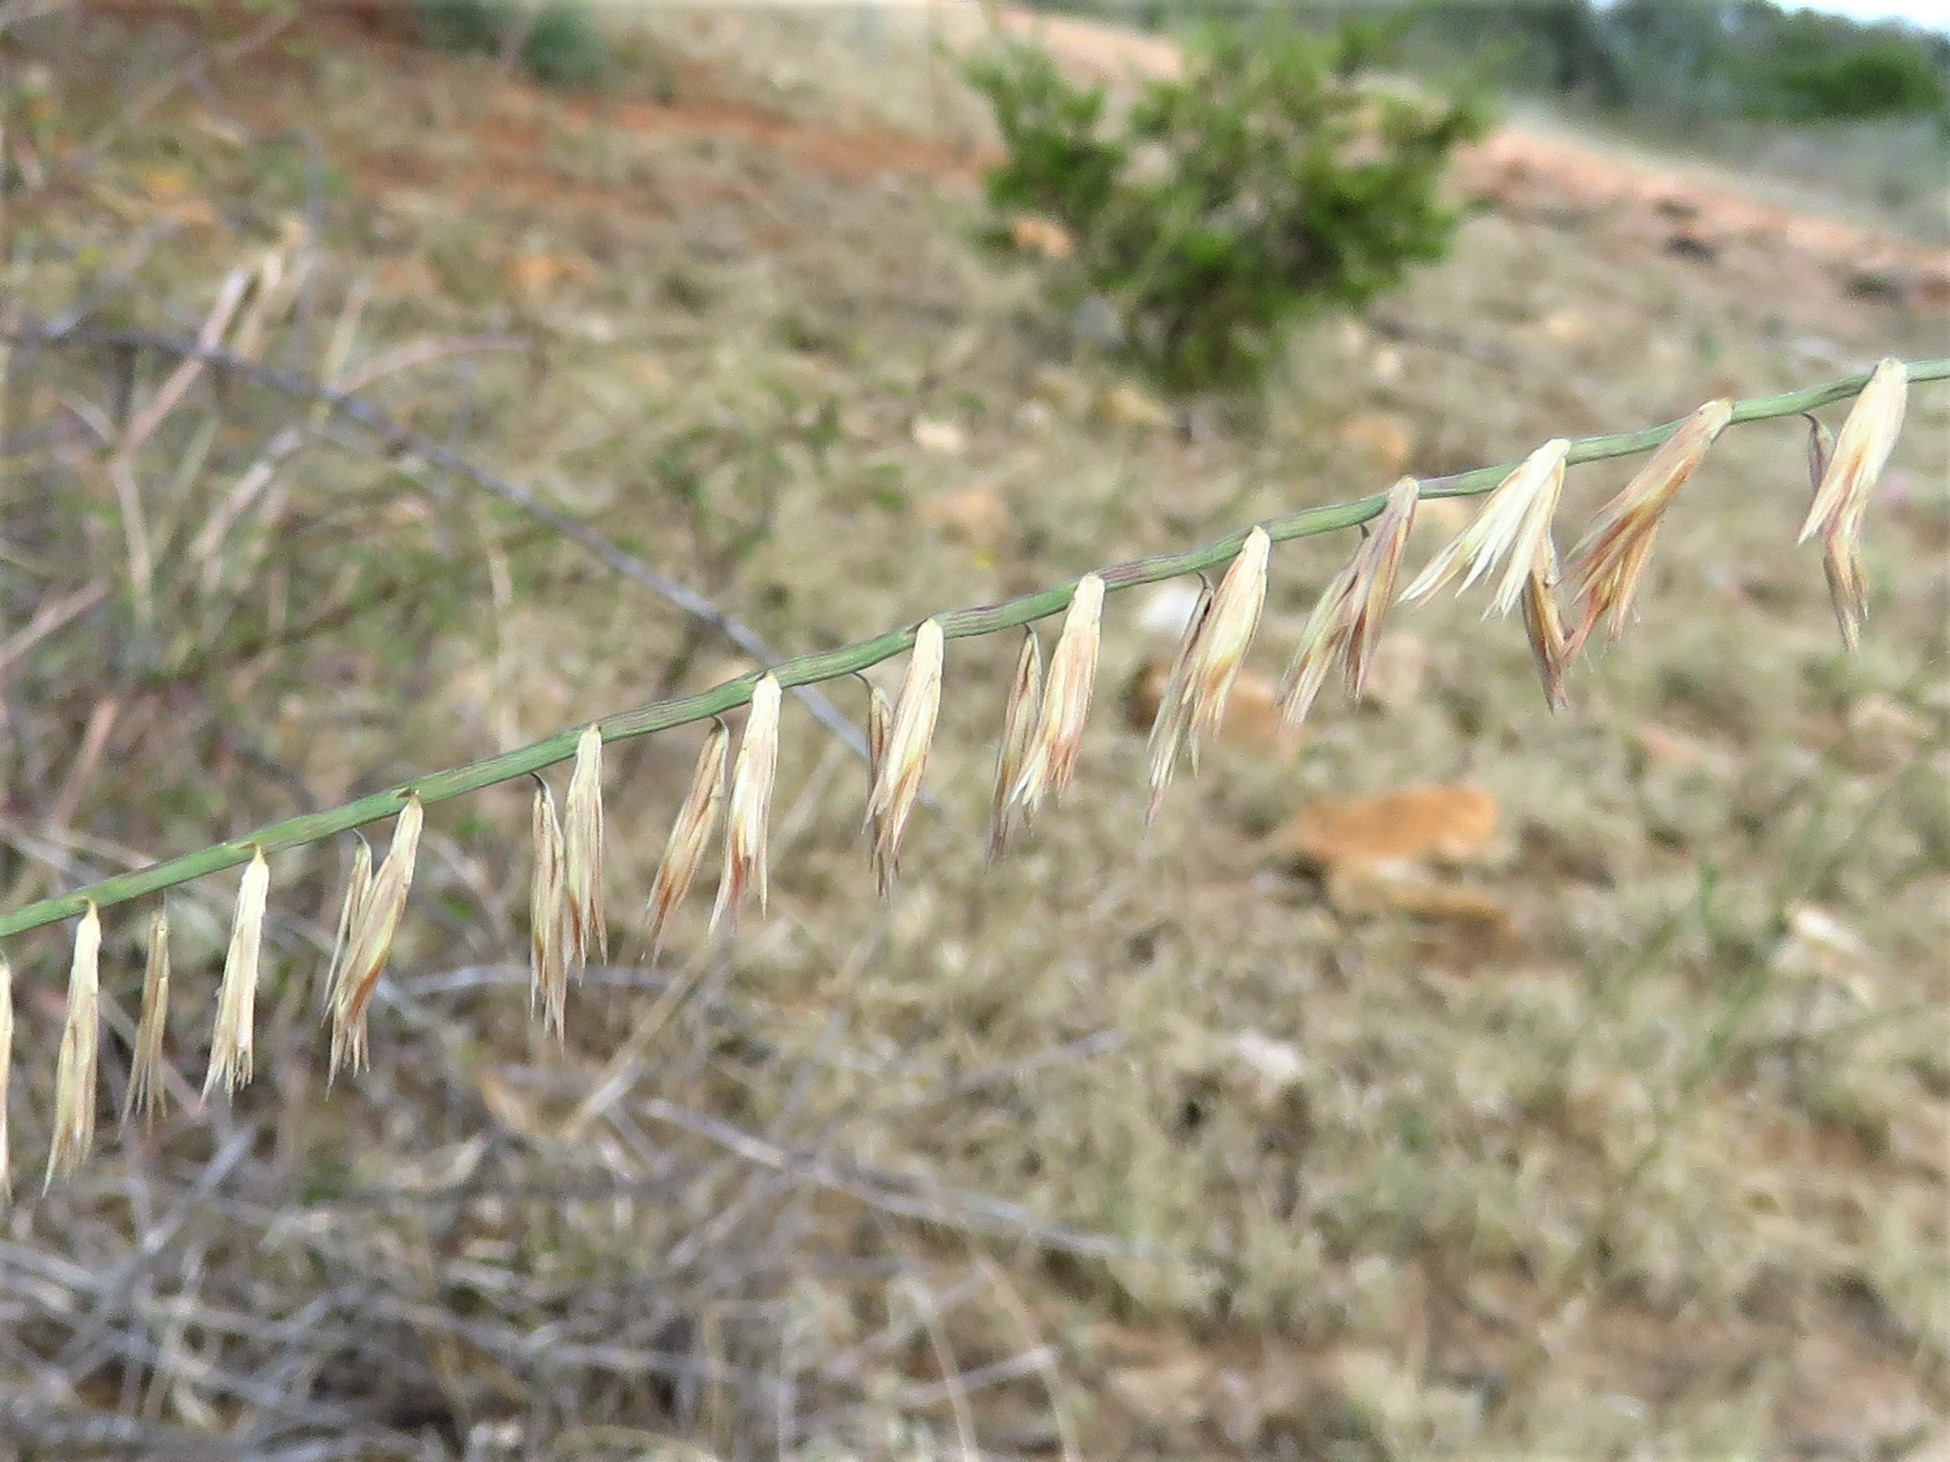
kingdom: Plantae
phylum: Tracheophyta
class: Liliopsida
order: Poales
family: Poaceae
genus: Bouteloua
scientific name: Bouteloua curtipendula
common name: Side-oats grama
